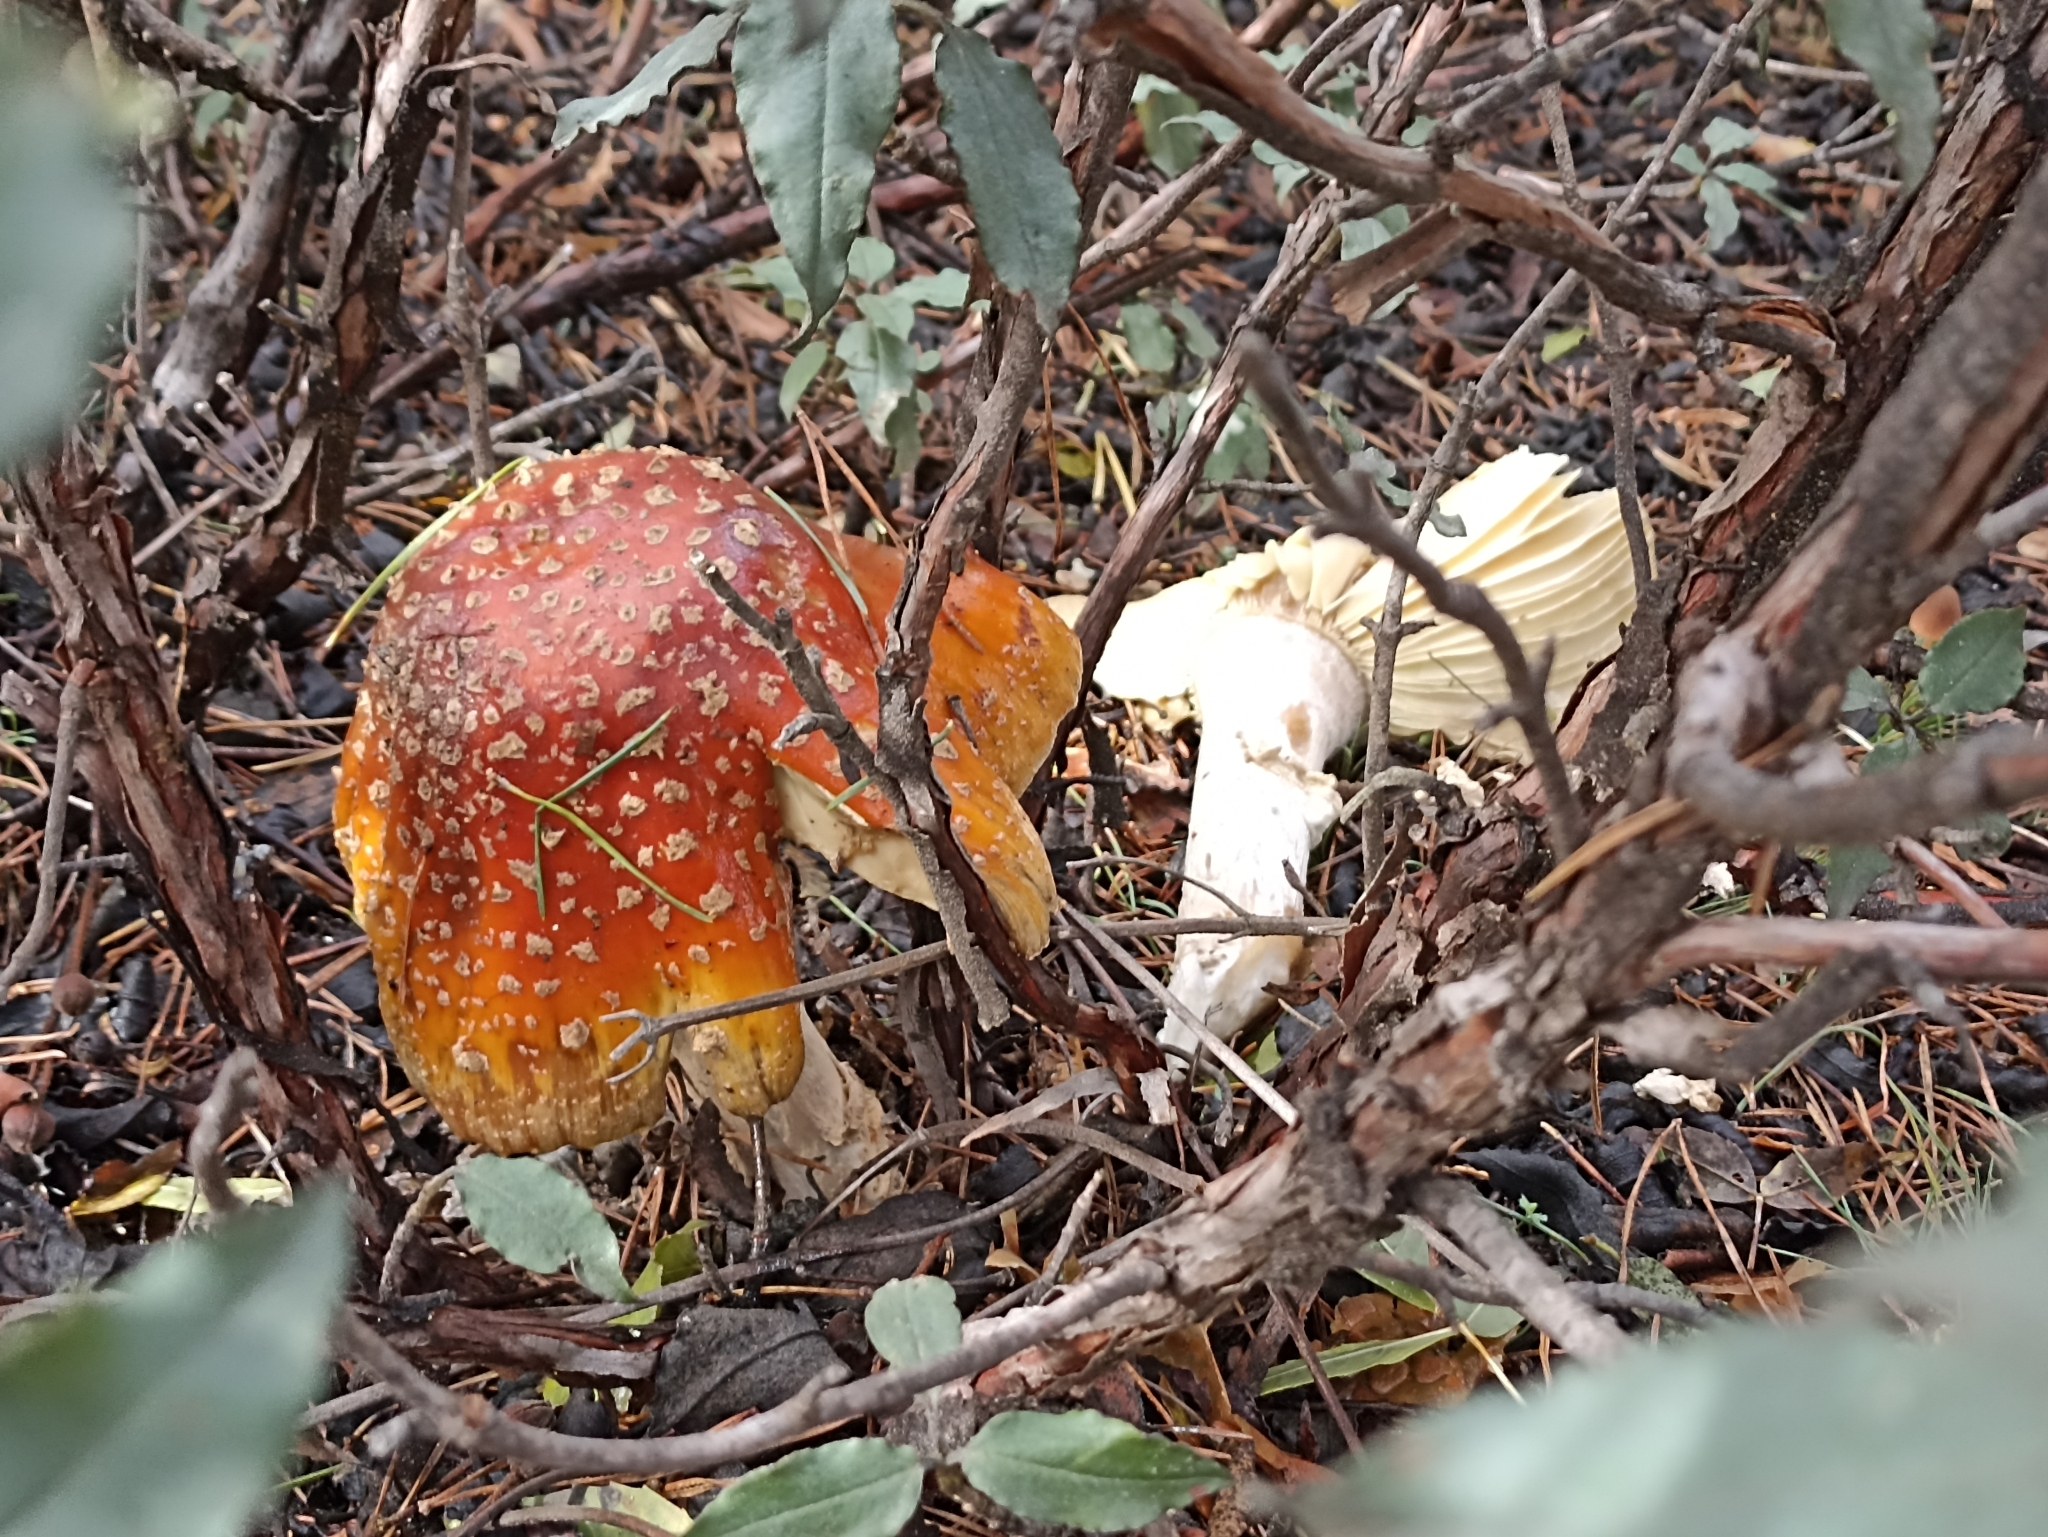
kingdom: Fungi
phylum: Basidiomycota
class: Agaricomycetes
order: Agaricales
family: Amanitaceae
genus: Amanita
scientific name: Amanita muscaria
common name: Fly agaric
